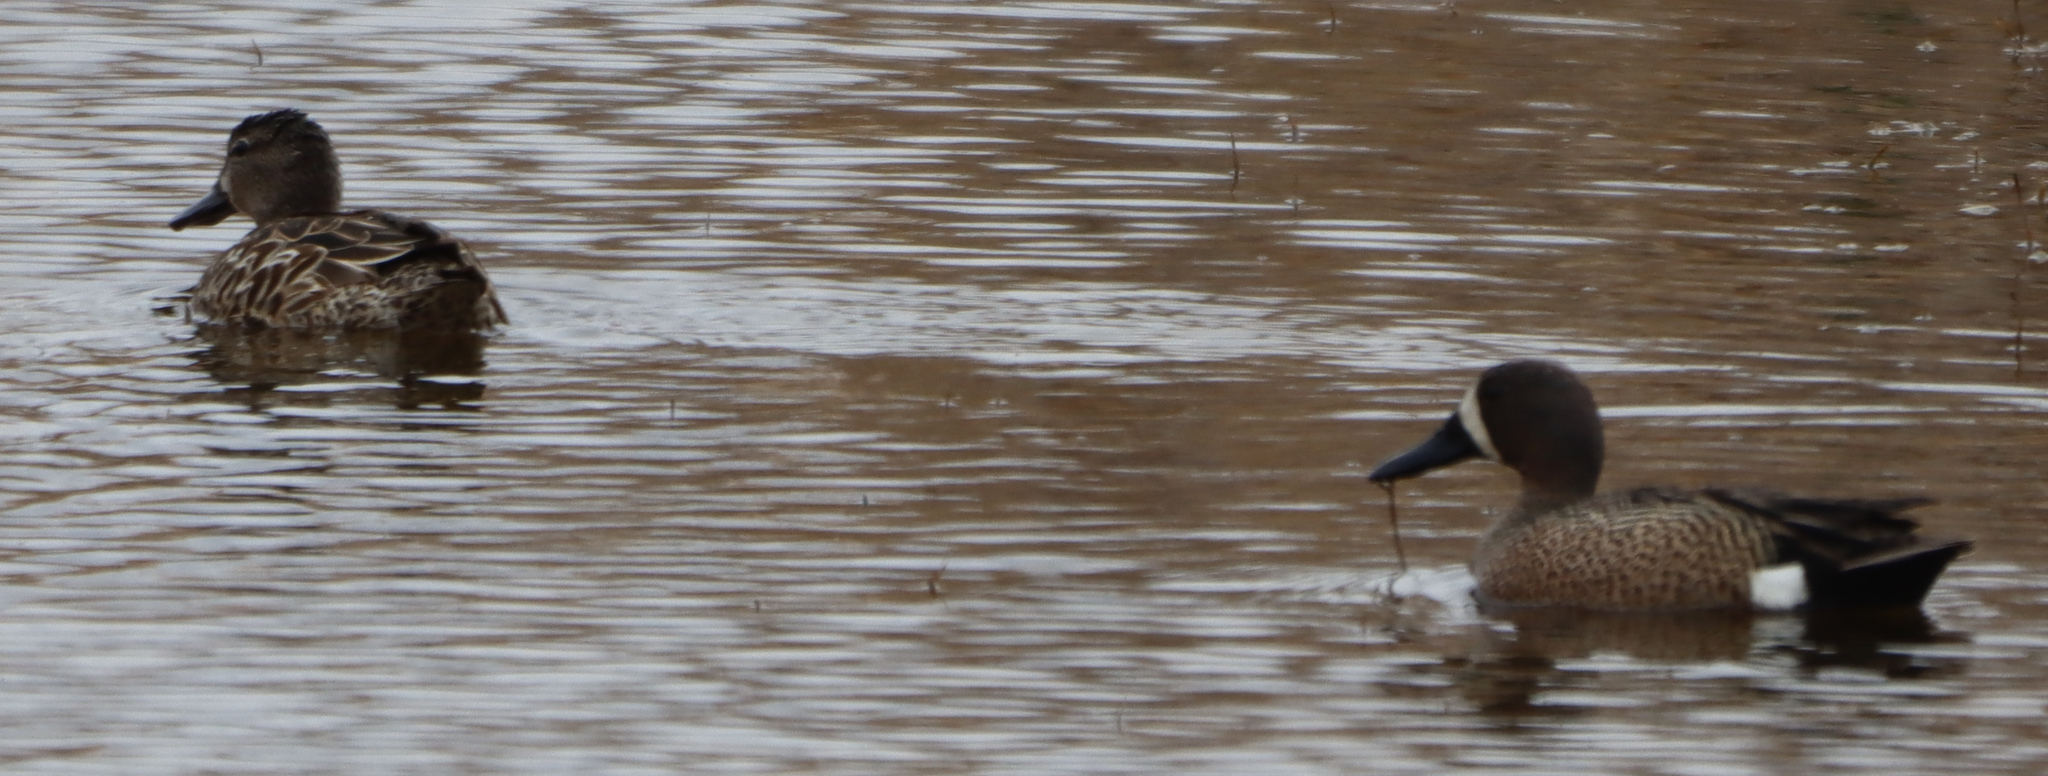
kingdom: Animalia
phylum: Chordata
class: Aves
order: Anseriformes
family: Anatidae
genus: Spatula
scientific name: Spatula discors
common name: Blue-winged teal
